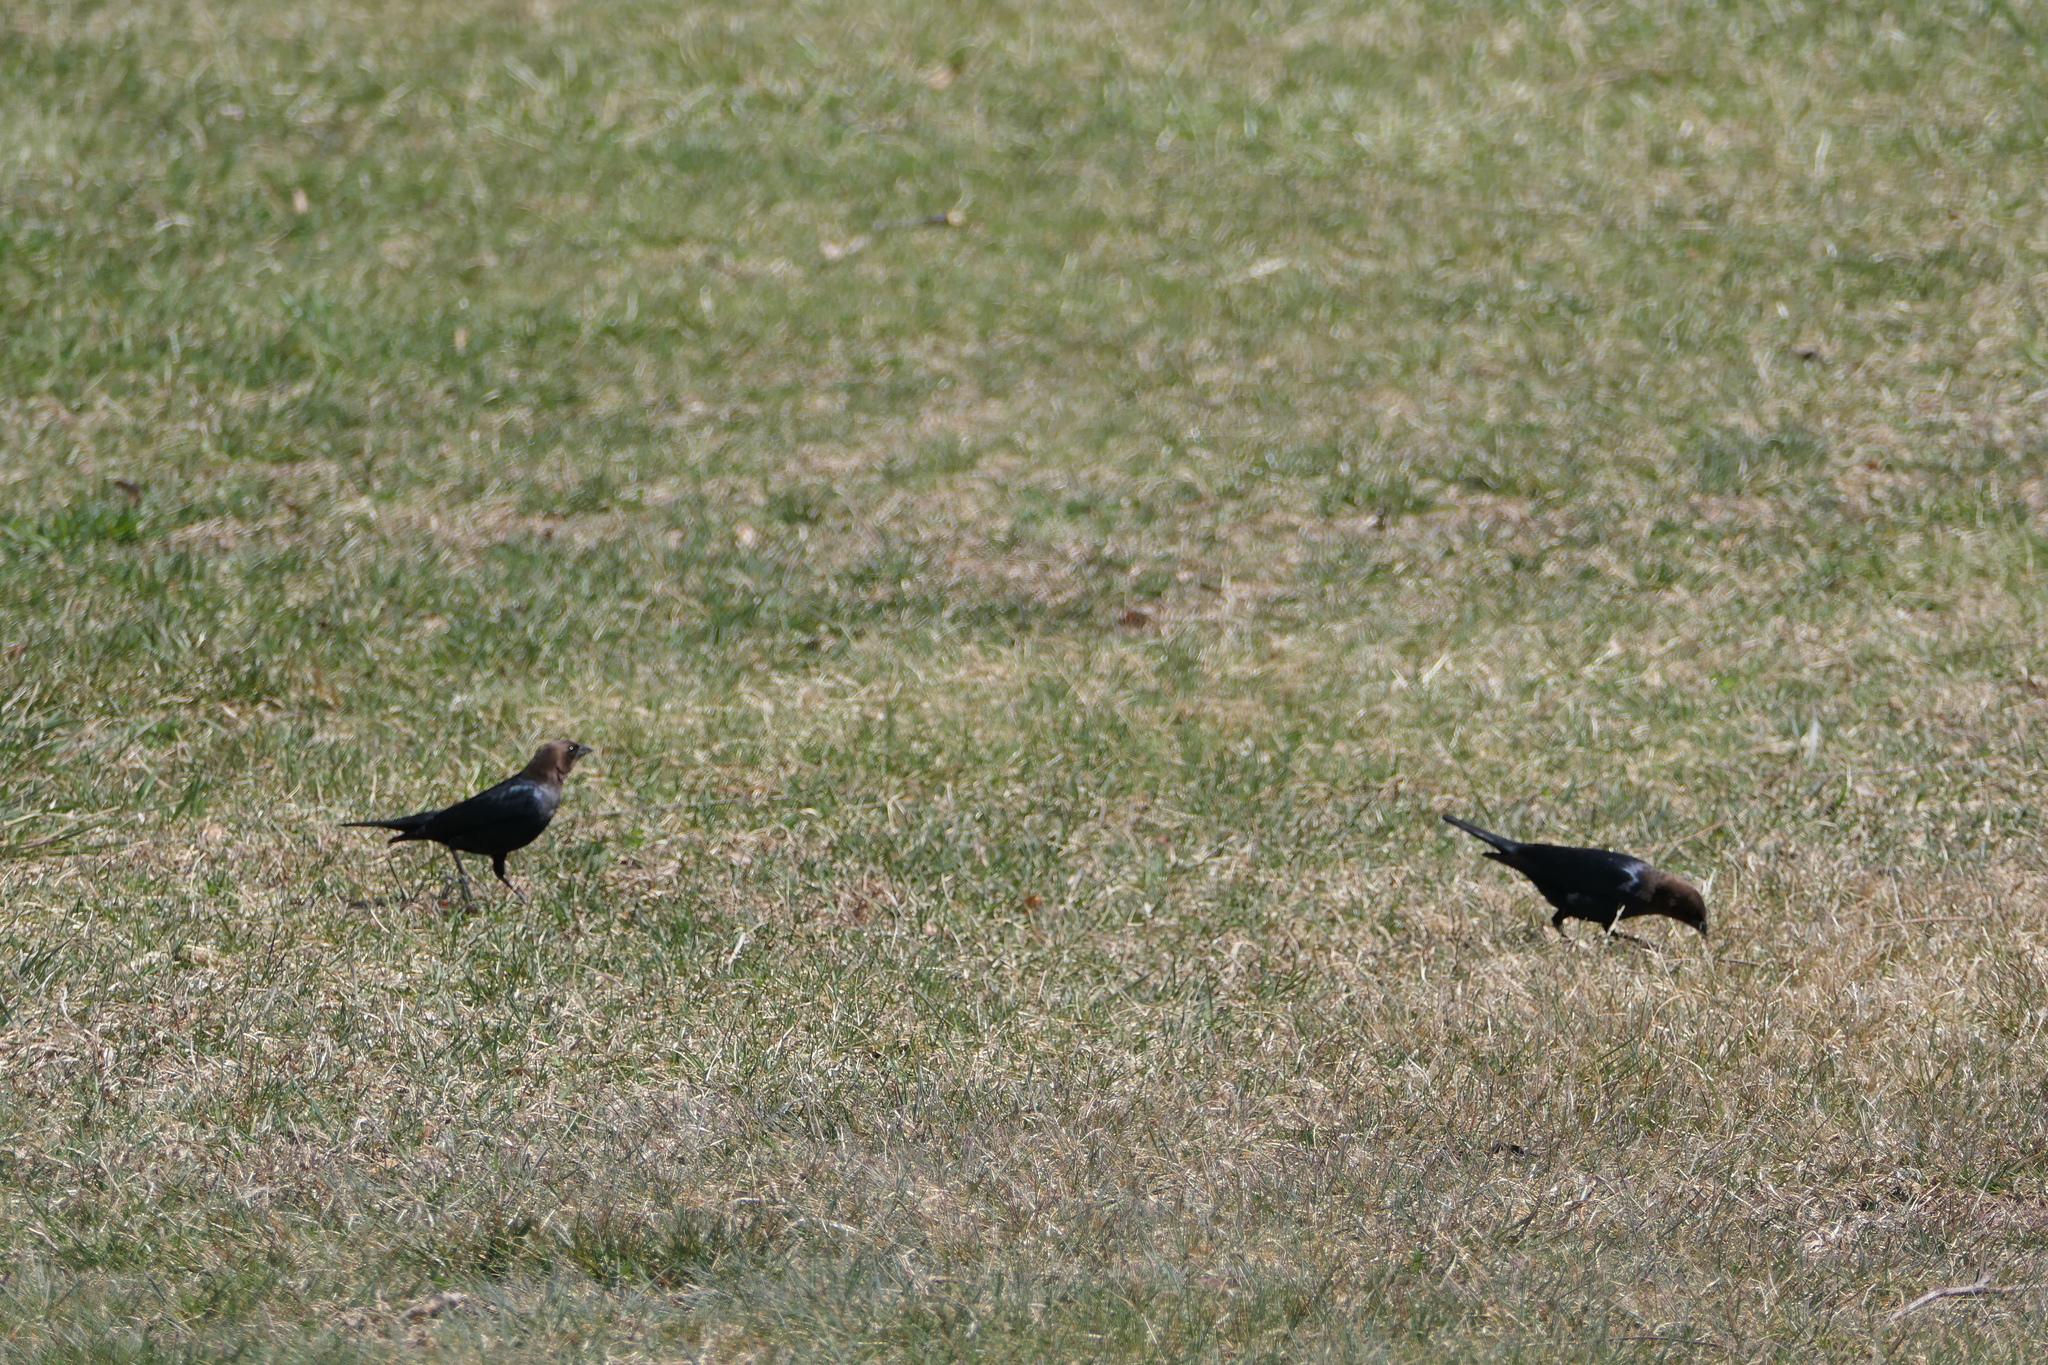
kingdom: Animalia
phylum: Chordata
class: Aves
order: Passeriformes
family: Icteridae
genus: Molothrus
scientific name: Molothrus ater
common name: Brown-headed cowbird
